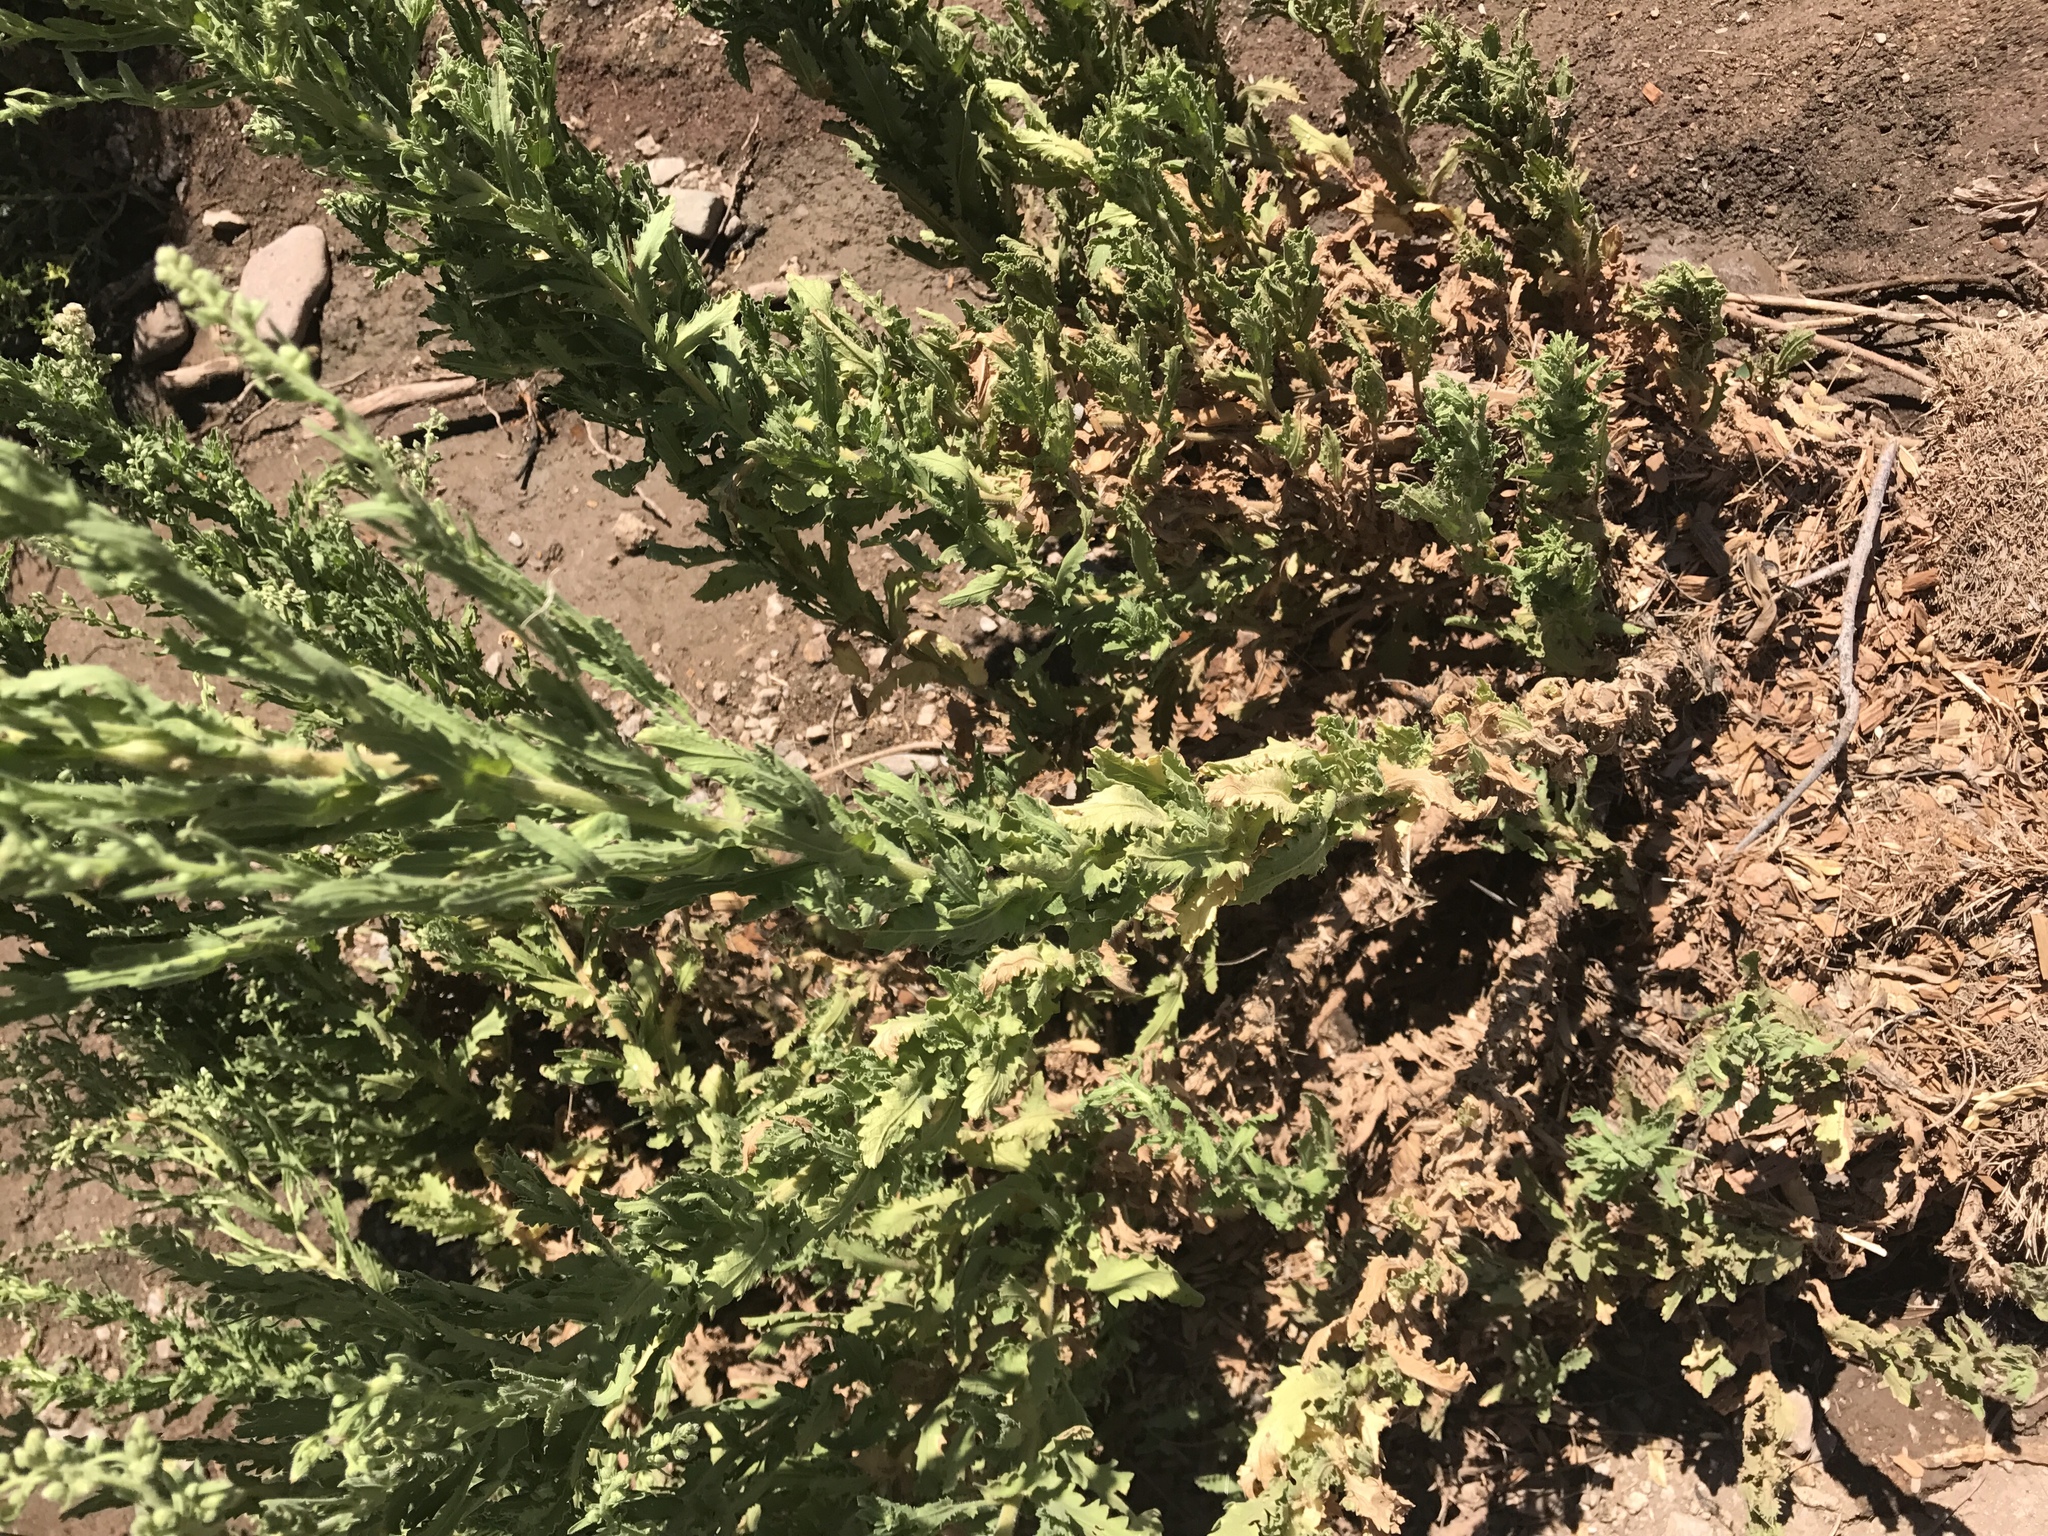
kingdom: Plantae
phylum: Tracheophyta
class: Magnoliopsida
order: Asterales
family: Asteraceae
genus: Laennecia
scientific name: Laennecia coulteri
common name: Coulter's woolwort
